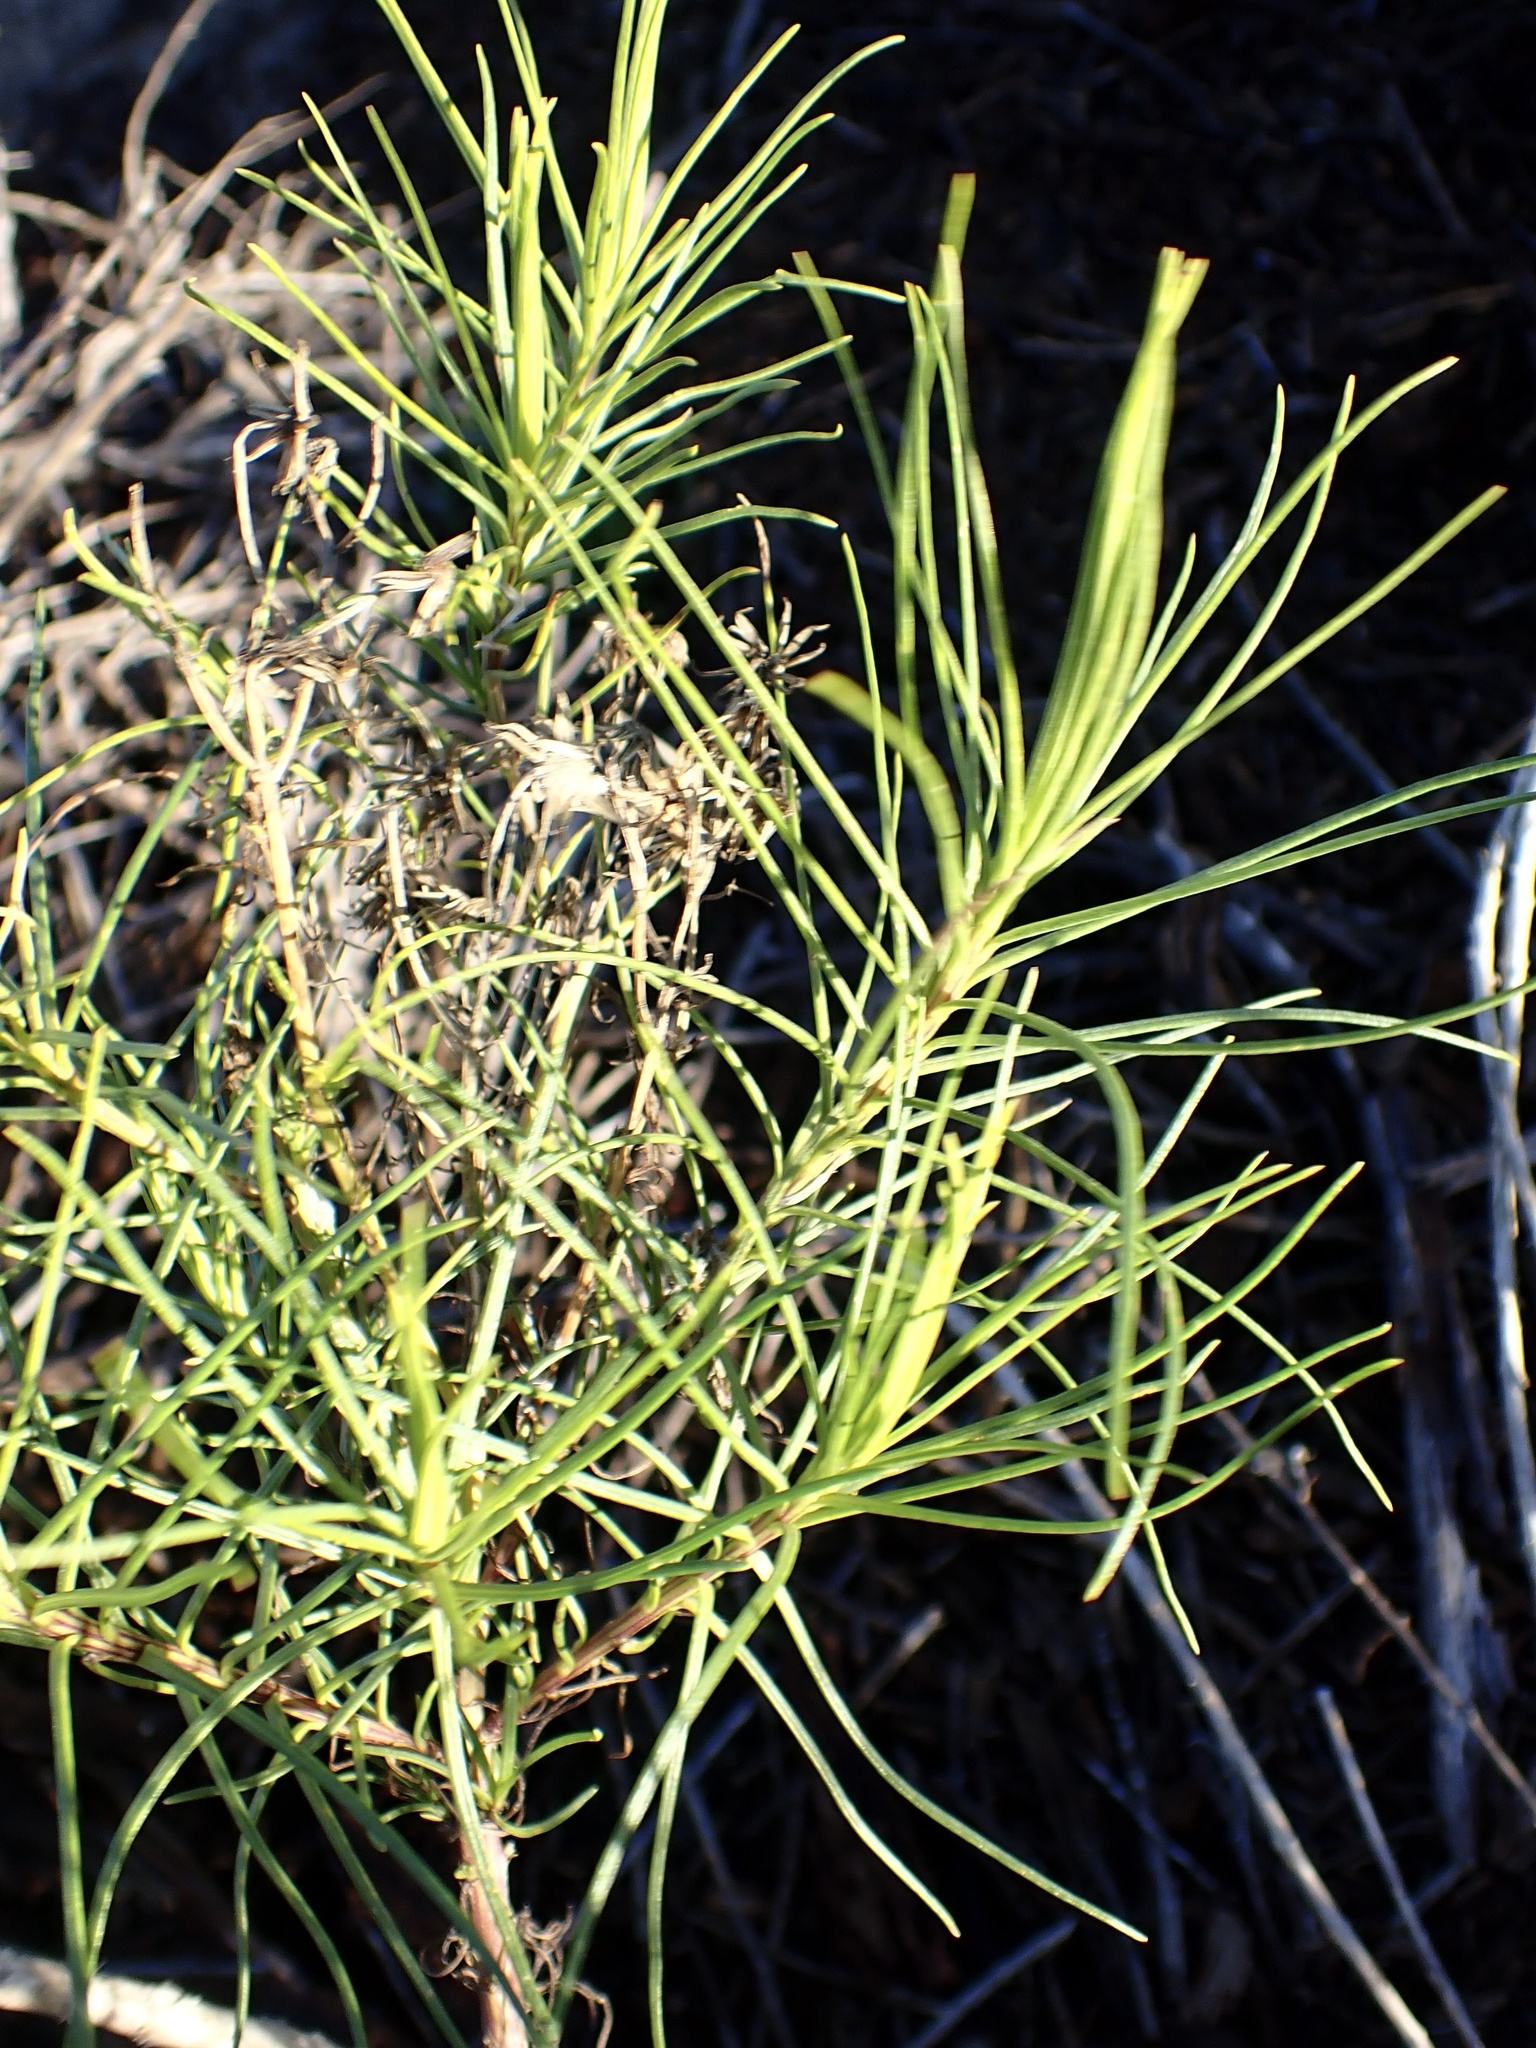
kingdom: Plantae
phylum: Tracheophyta
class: Magnoliopsida
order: Asterales
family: Asteraceae
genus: Senecio
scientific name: Senecio blochmaniae
